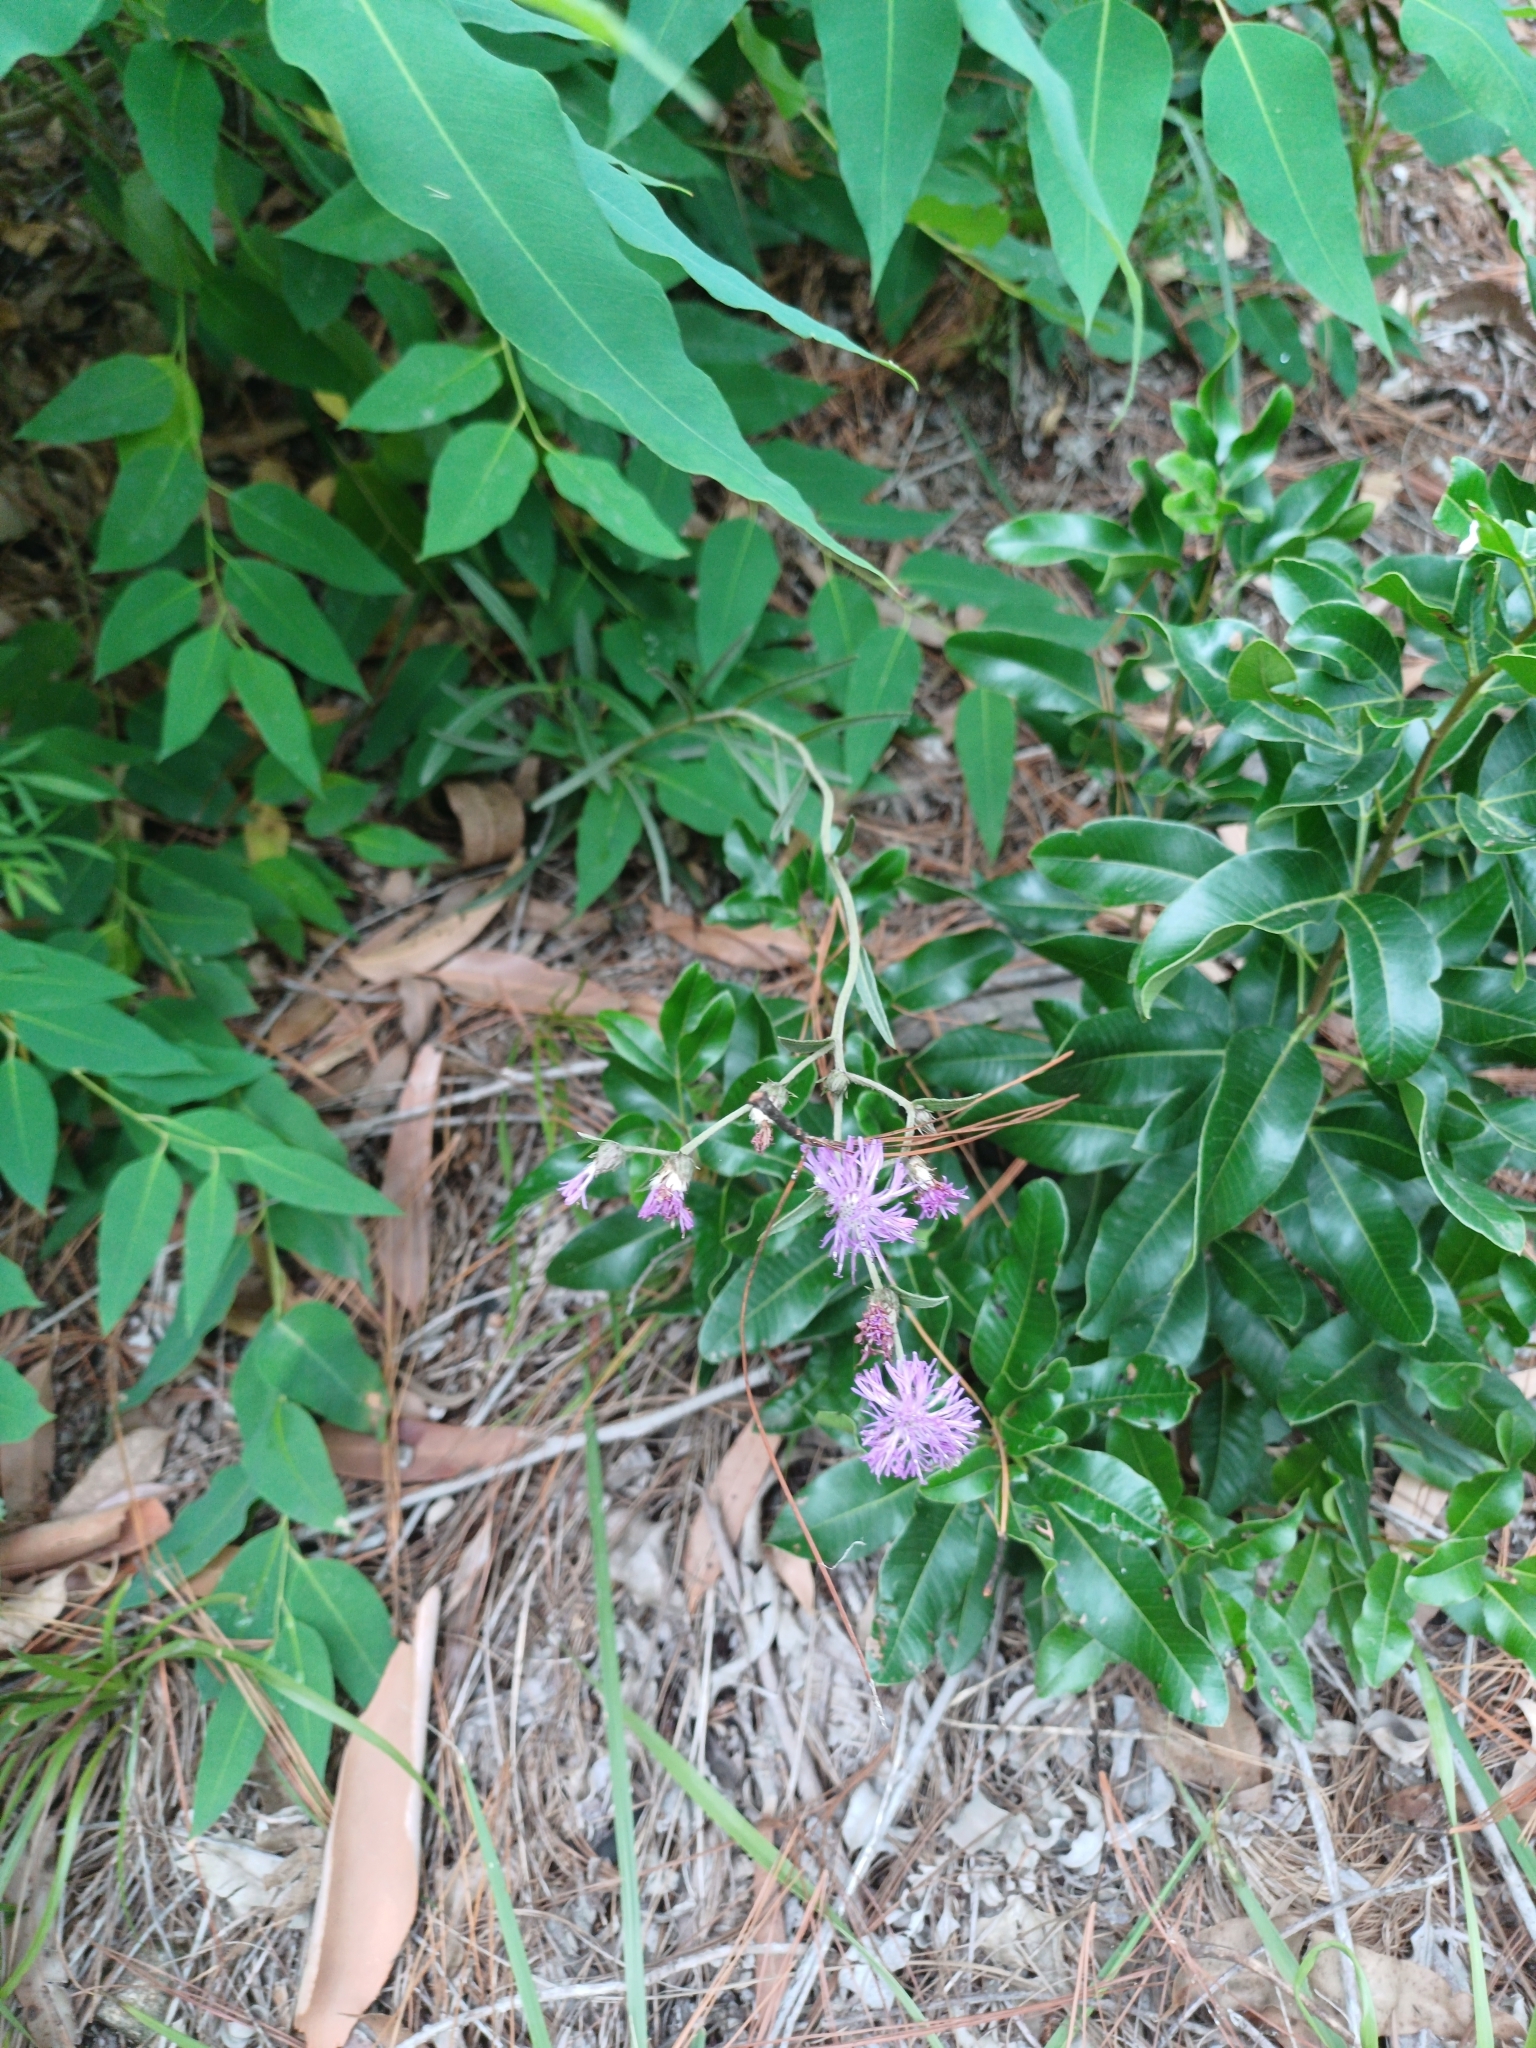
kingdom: Plantae
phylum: Tracheophyta
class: Magnoliopsida
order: Asterales
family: Asteraceae
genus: Chrysolaena
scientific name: Chrysolaena flexuosa
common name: Zig-zag vernonia
